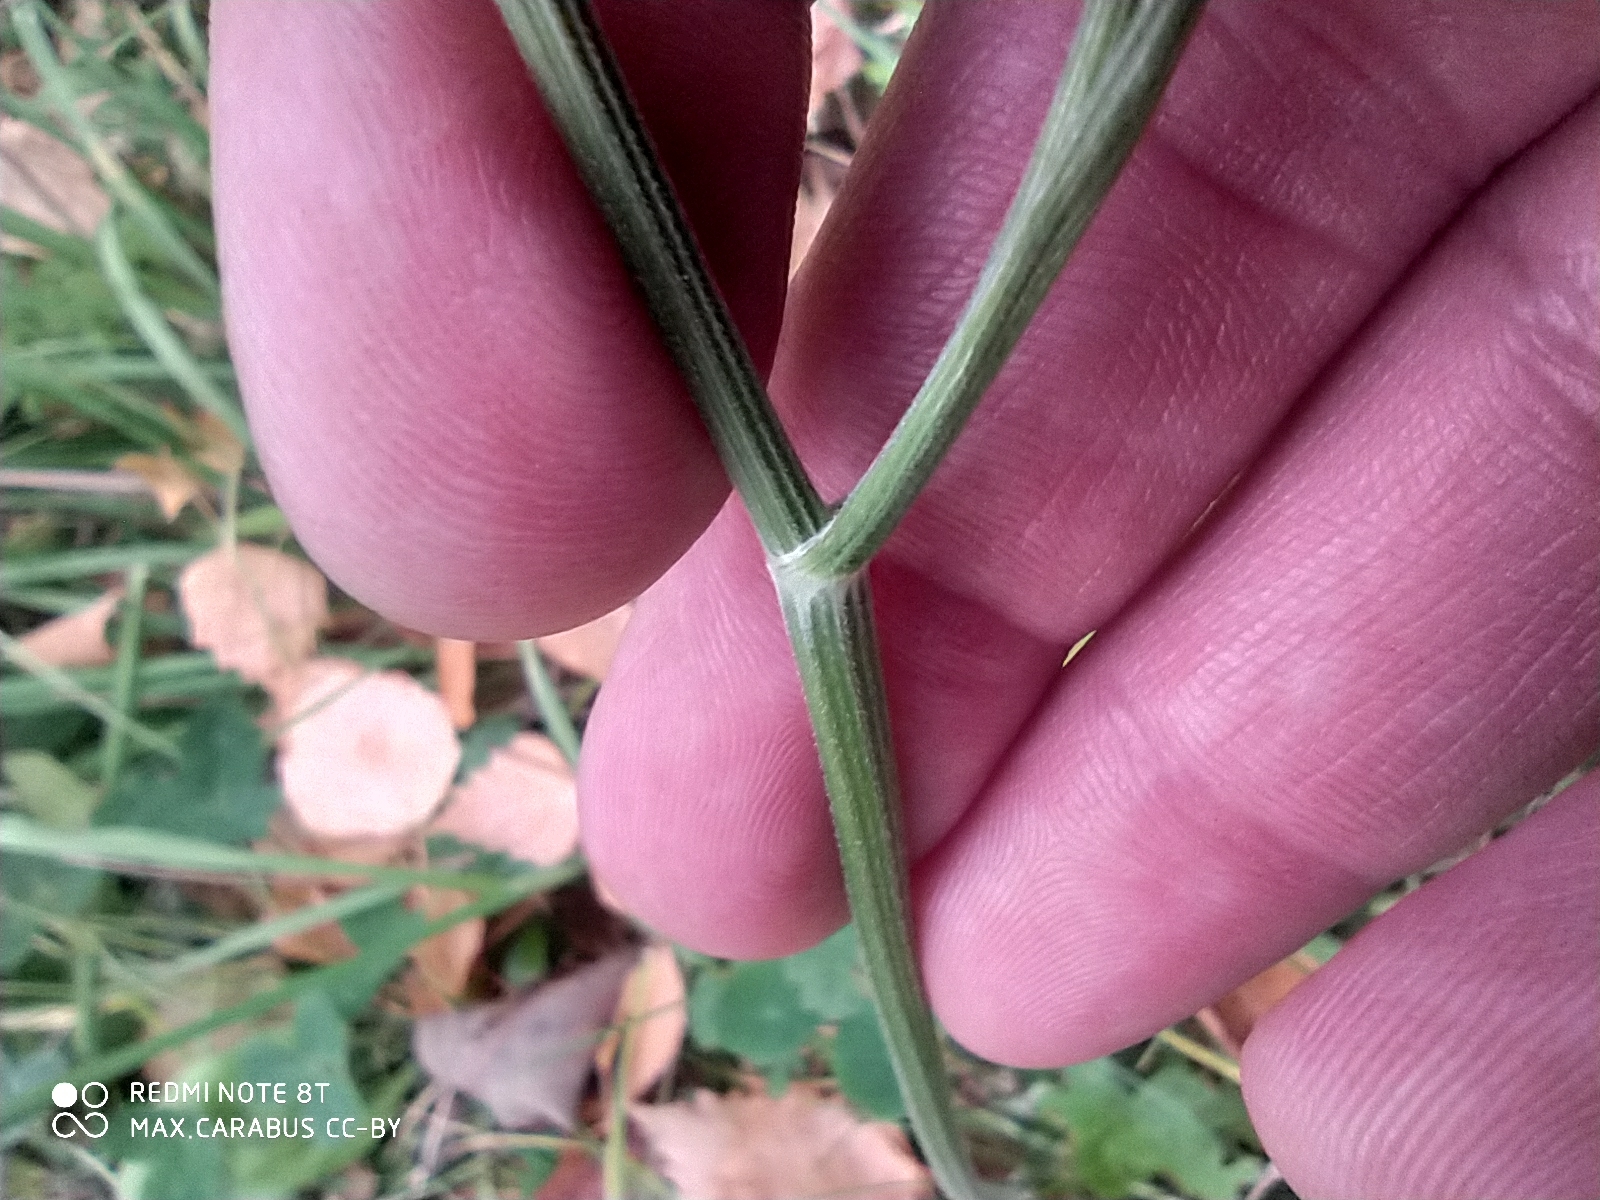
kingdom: Plantae
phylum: Tracheophyta
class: Magnoliopsida
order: Apiales
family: Apiaceae
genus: Pimpinella
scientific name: Pimpinella saxifraga
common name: Burnet-saxifrage
